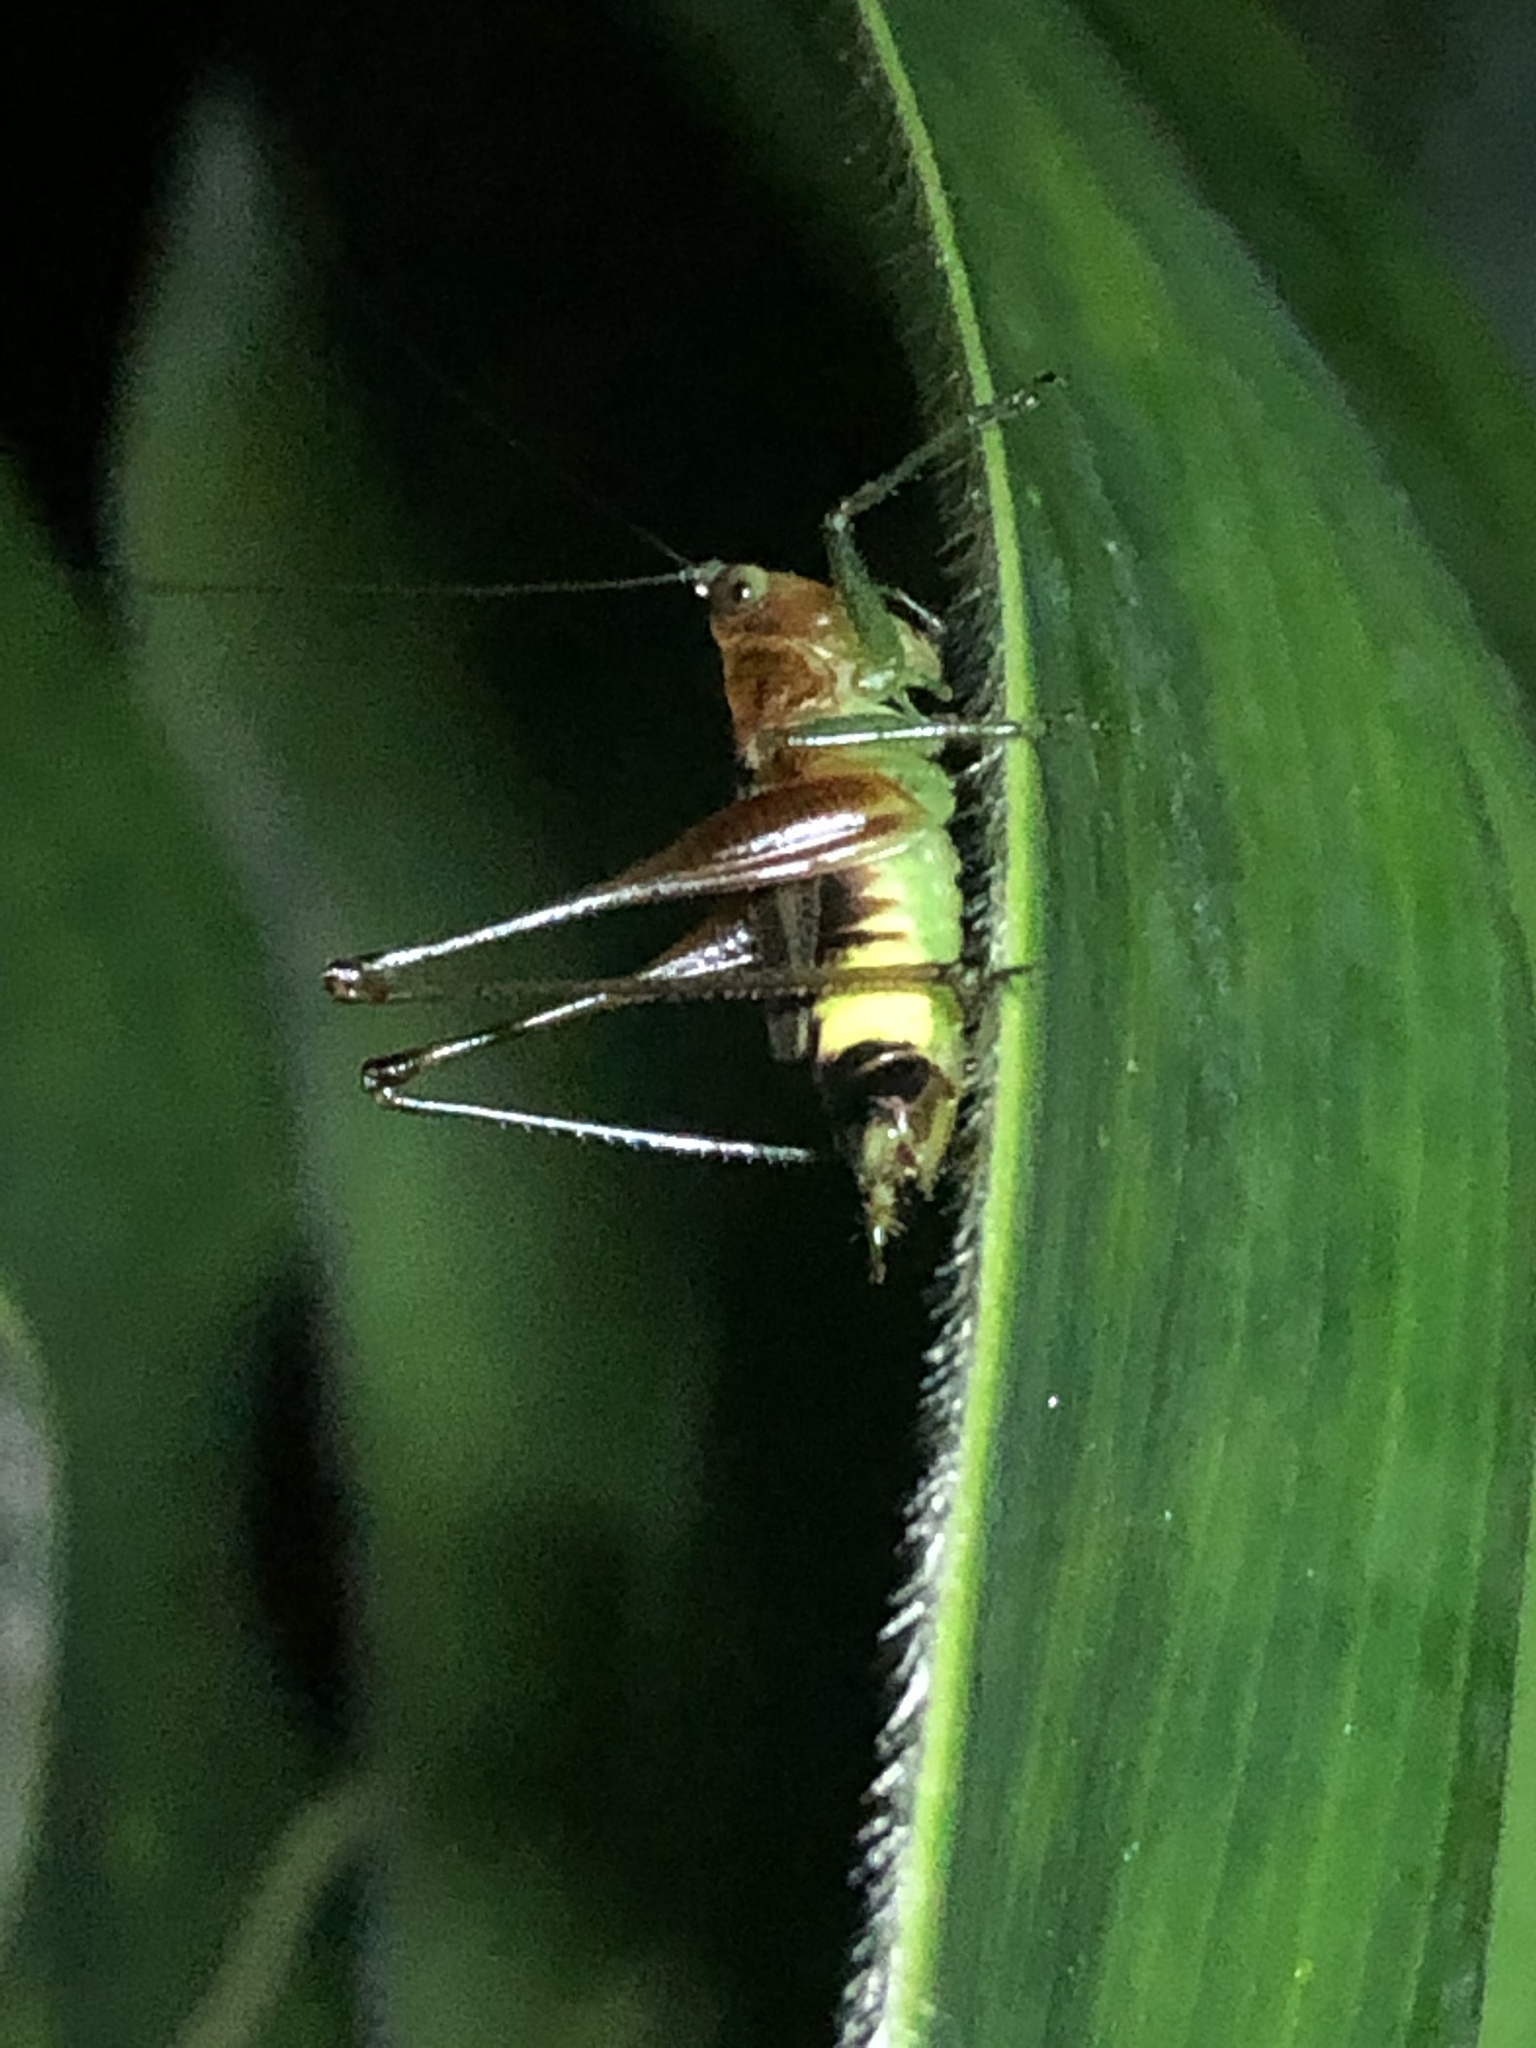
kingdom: Animalia
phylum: Arthropoda
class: Insecta
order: Orthoptera
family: Tettigoniidae
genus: Conocephalus
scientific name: Conocephalus versicolor
